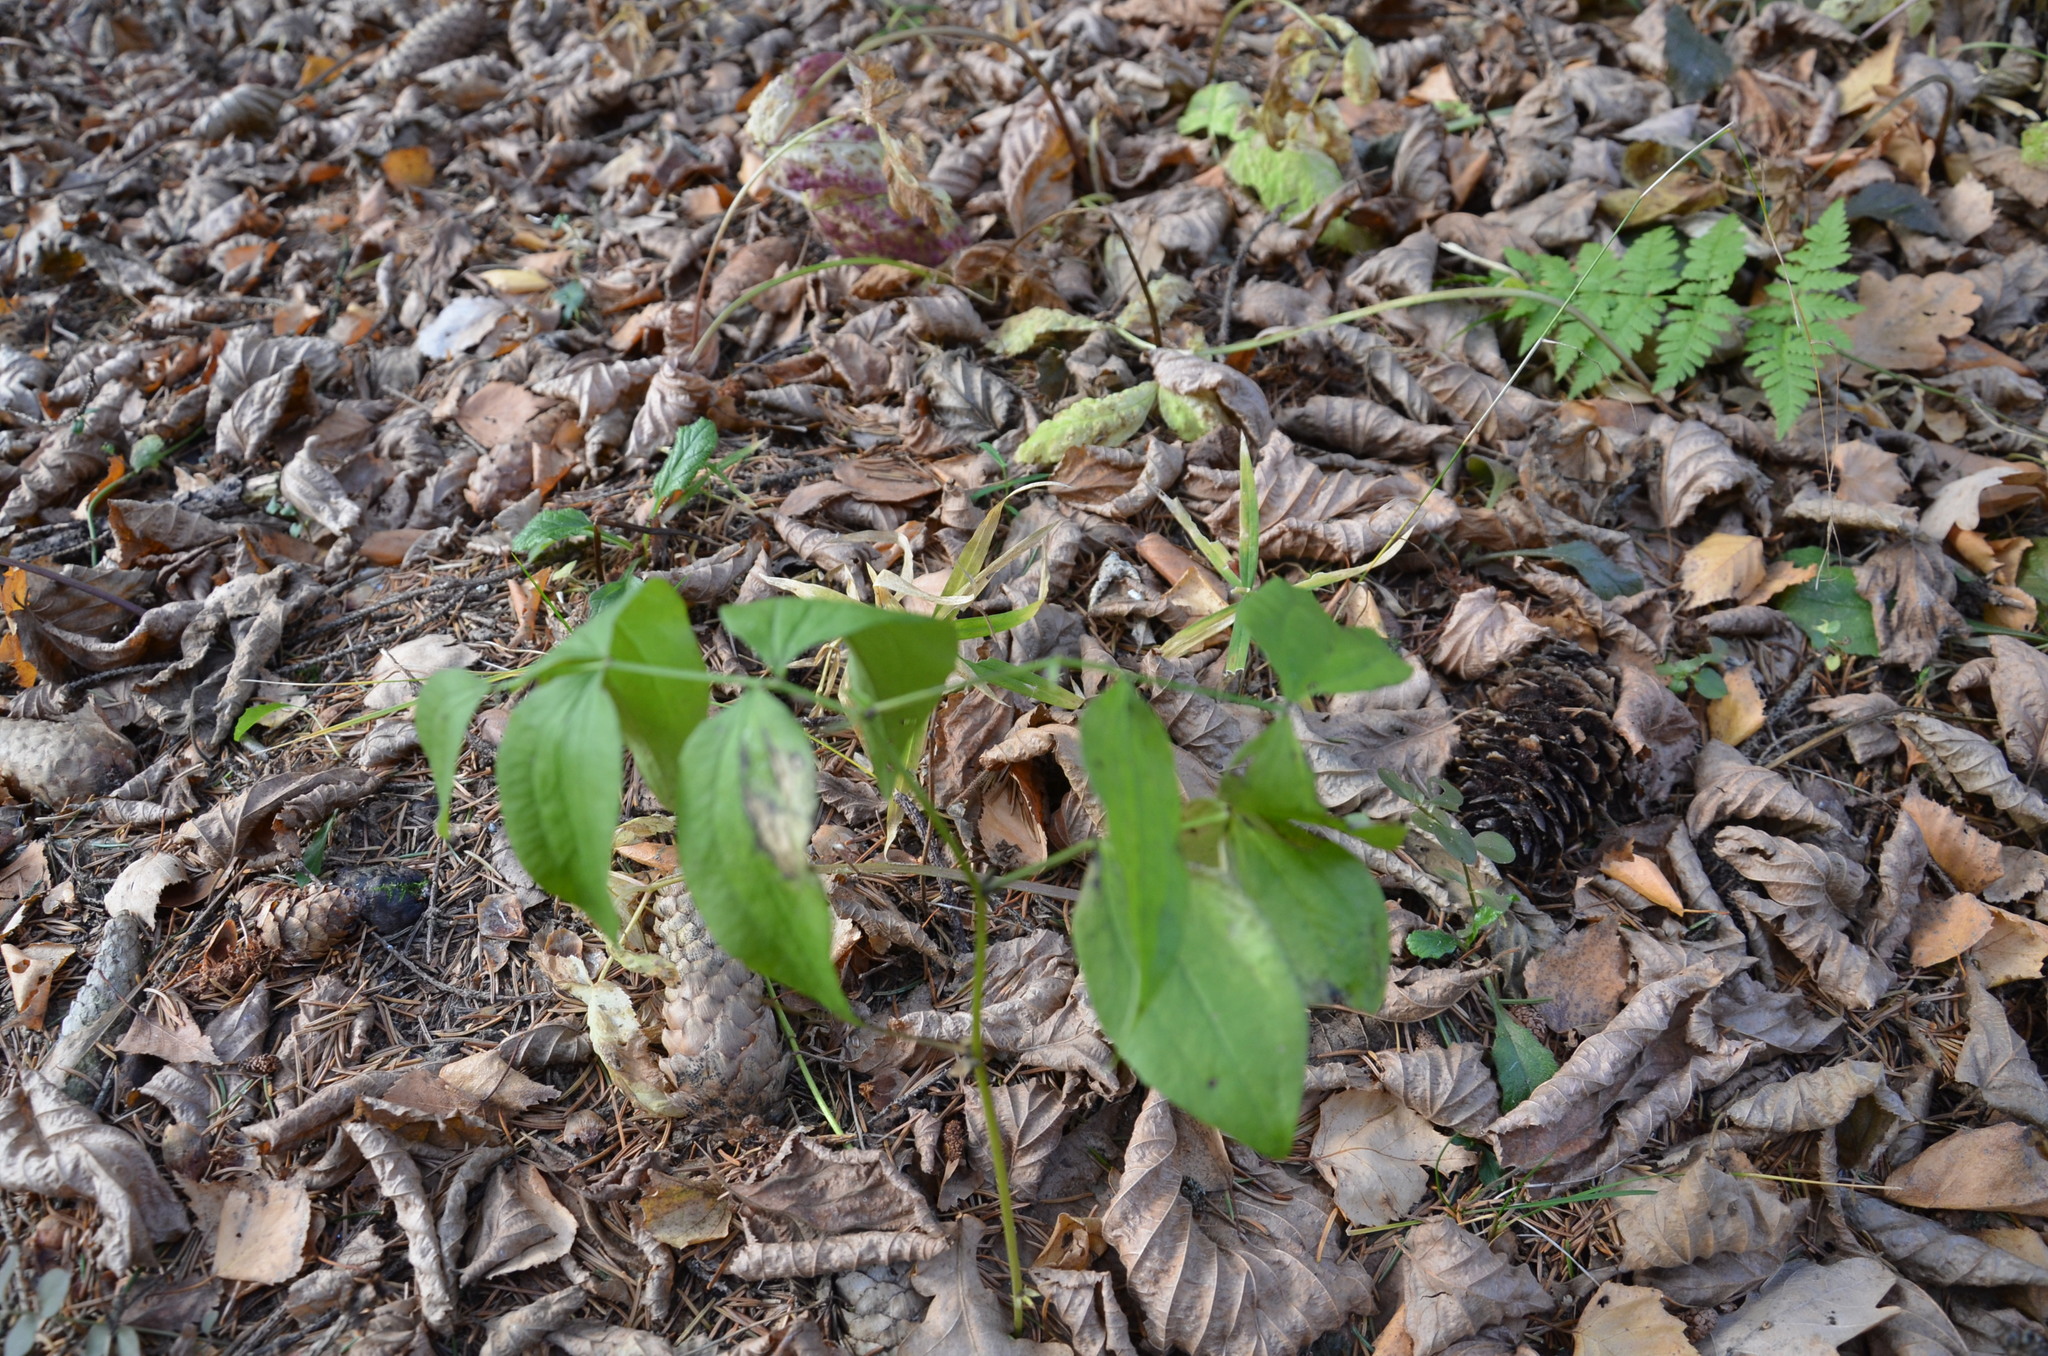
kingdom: Plantae
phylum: Tracheophyta
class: Magnoliopsida
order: Fabales
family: Fabaceae
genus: Lathyrus
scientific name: Lathyrus vernus
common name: Spring pea
